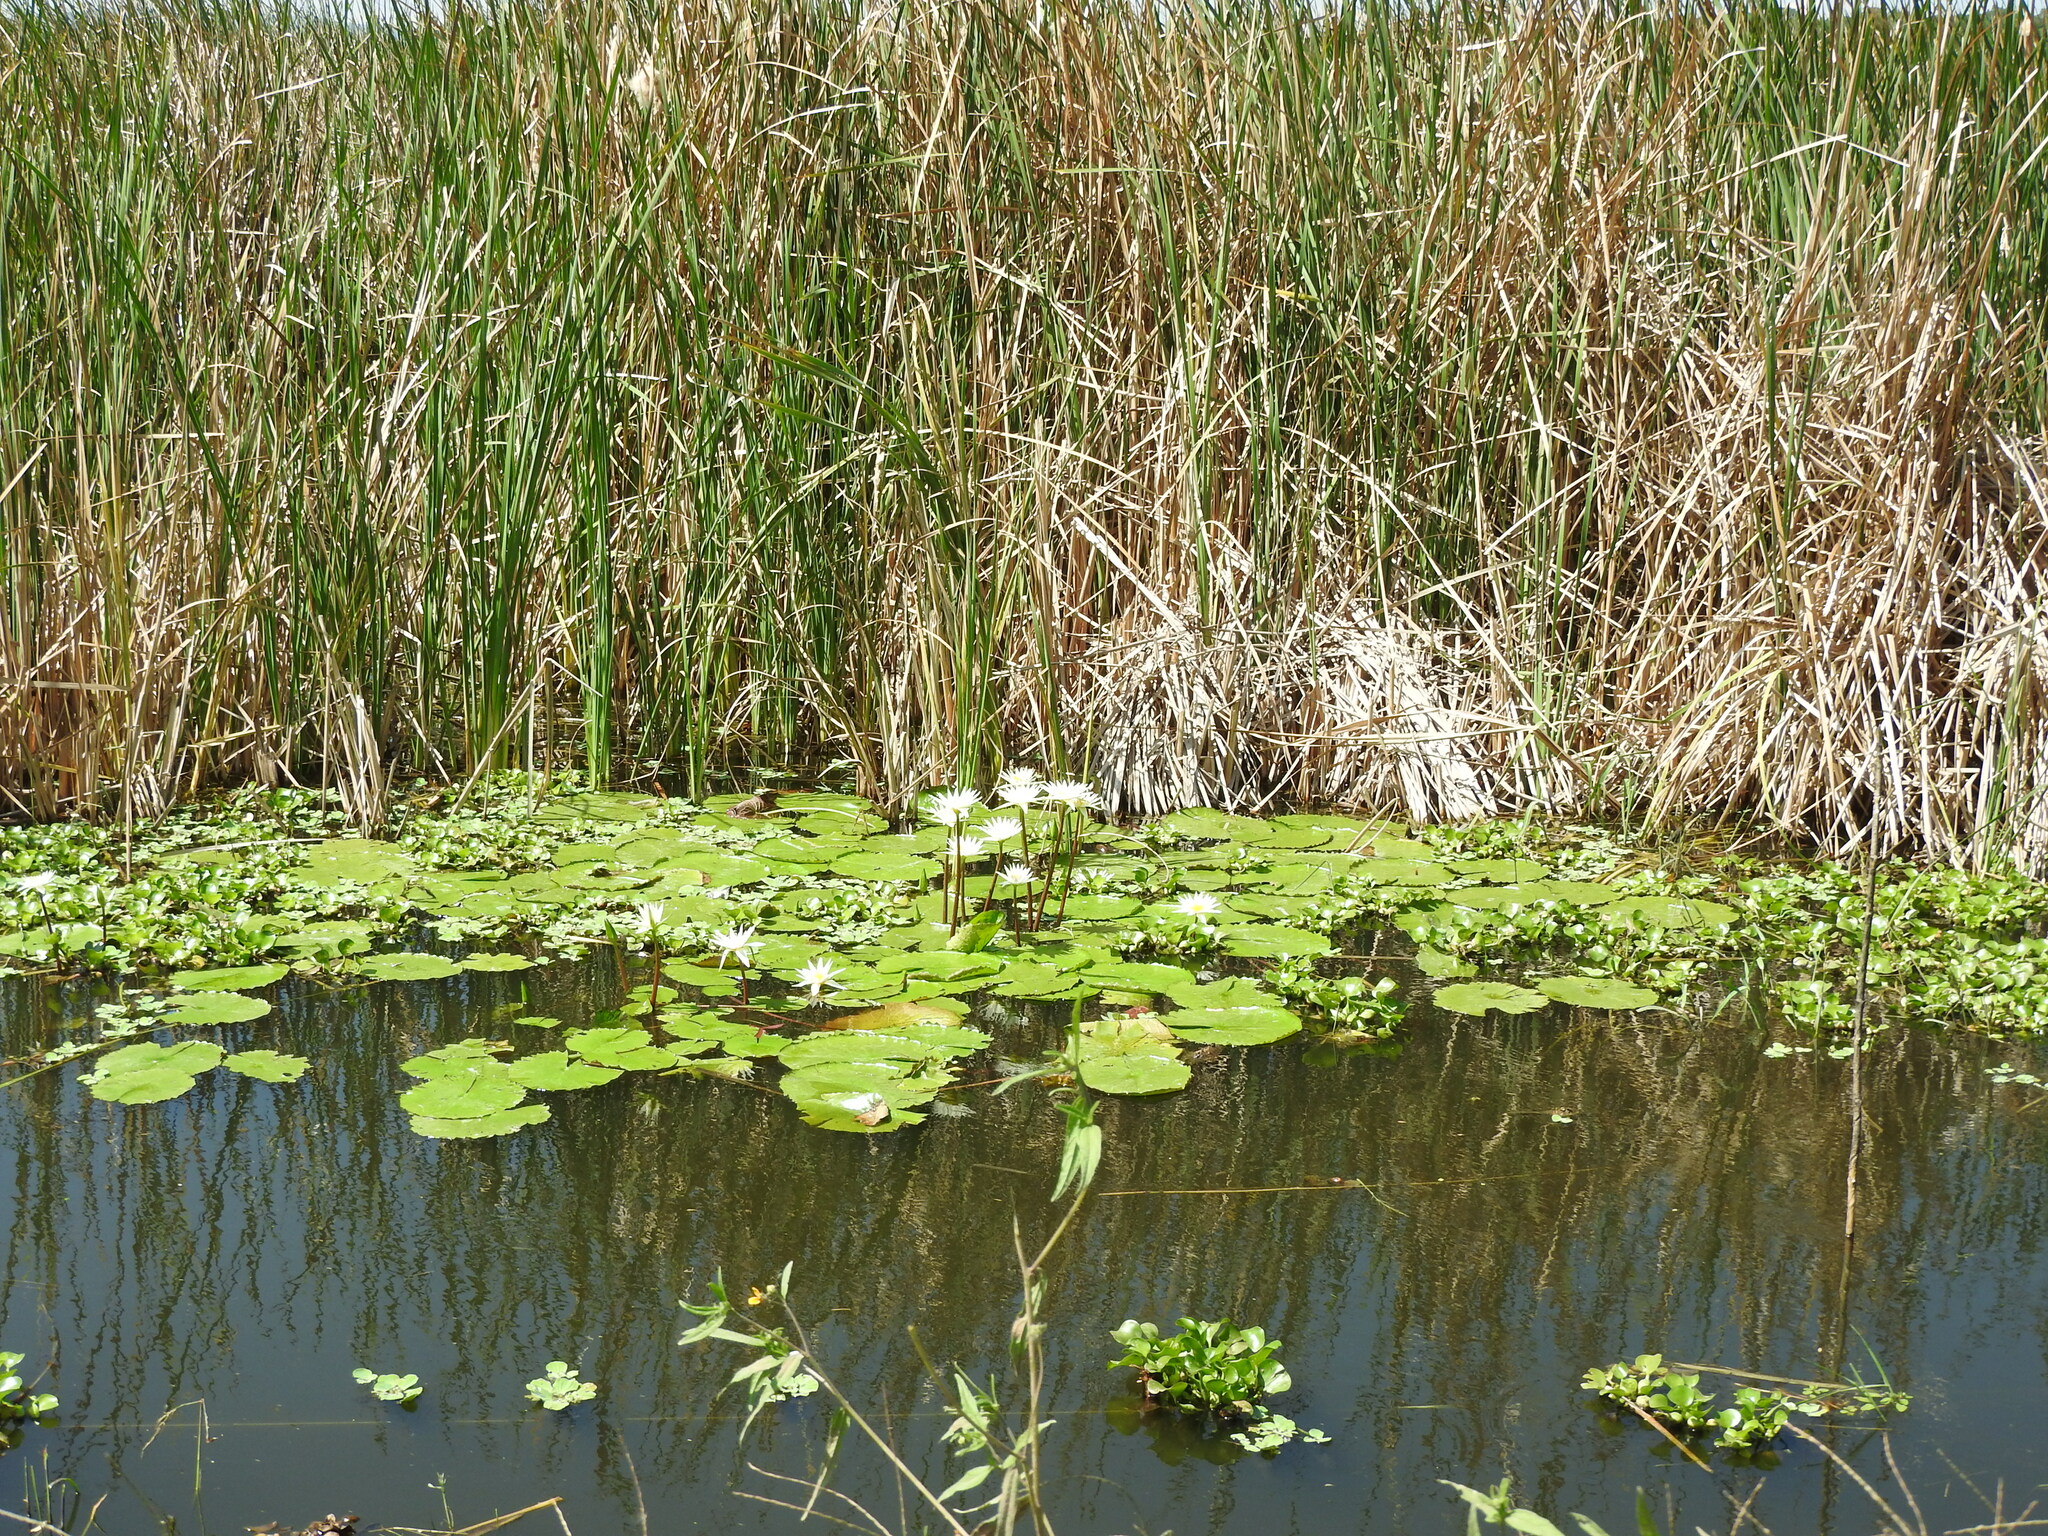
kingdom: Plantae
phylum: Tracheophyta
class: Magnoliopsida
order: Nymphaeales
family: Nymphaeaceae
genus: Nymphaea
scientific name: Nymphaea gracilis
